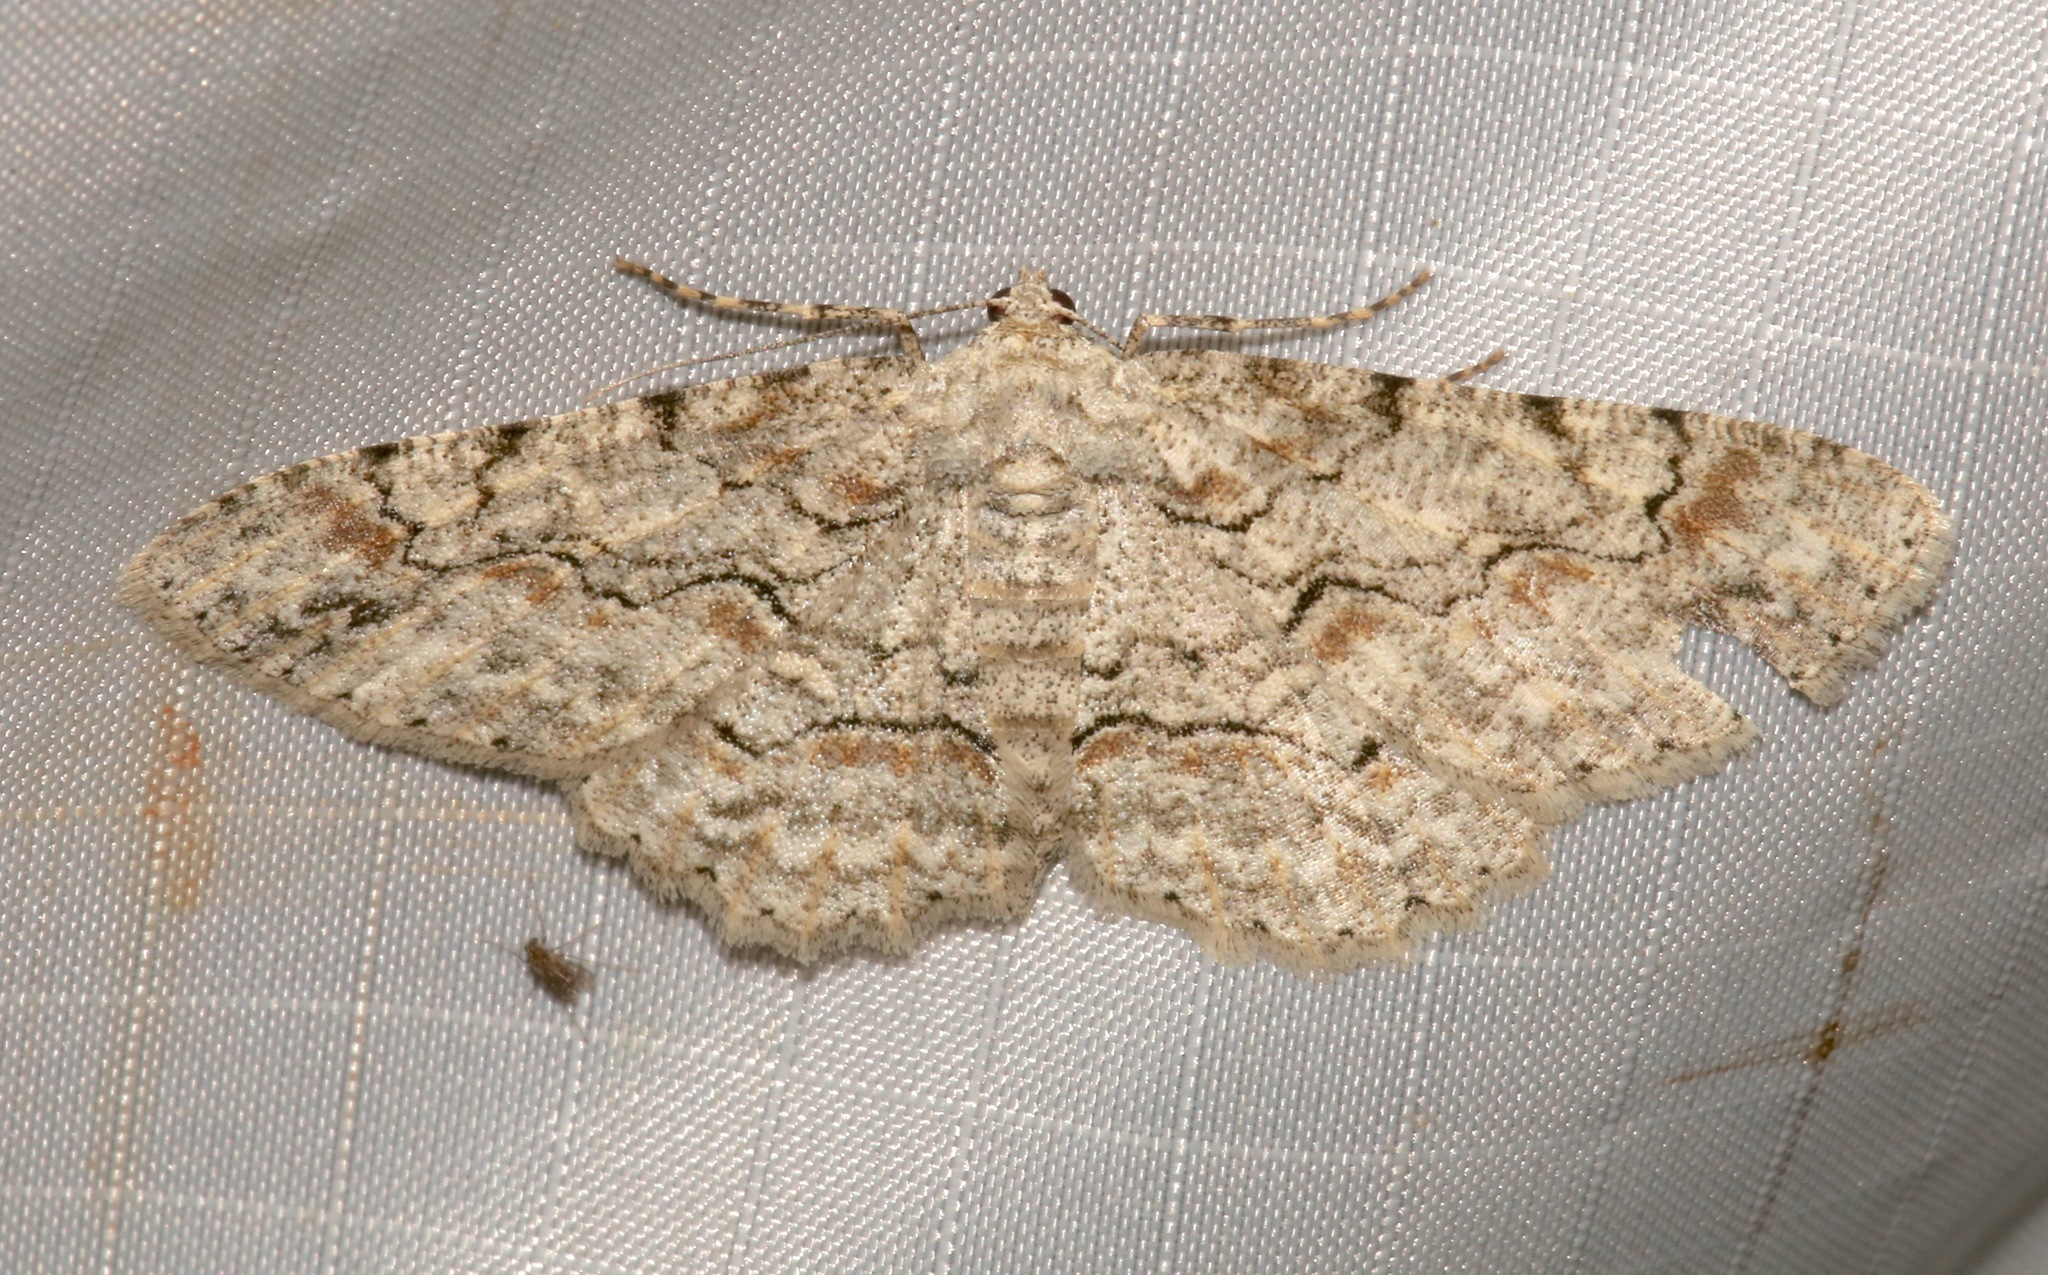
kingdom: Animalia
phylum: Arthropoda
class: Insecta
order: Lepidoptera
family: Geometridae
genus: Iridopsis
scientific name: Iridopsis defectaria
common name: Brown-shaded gray
